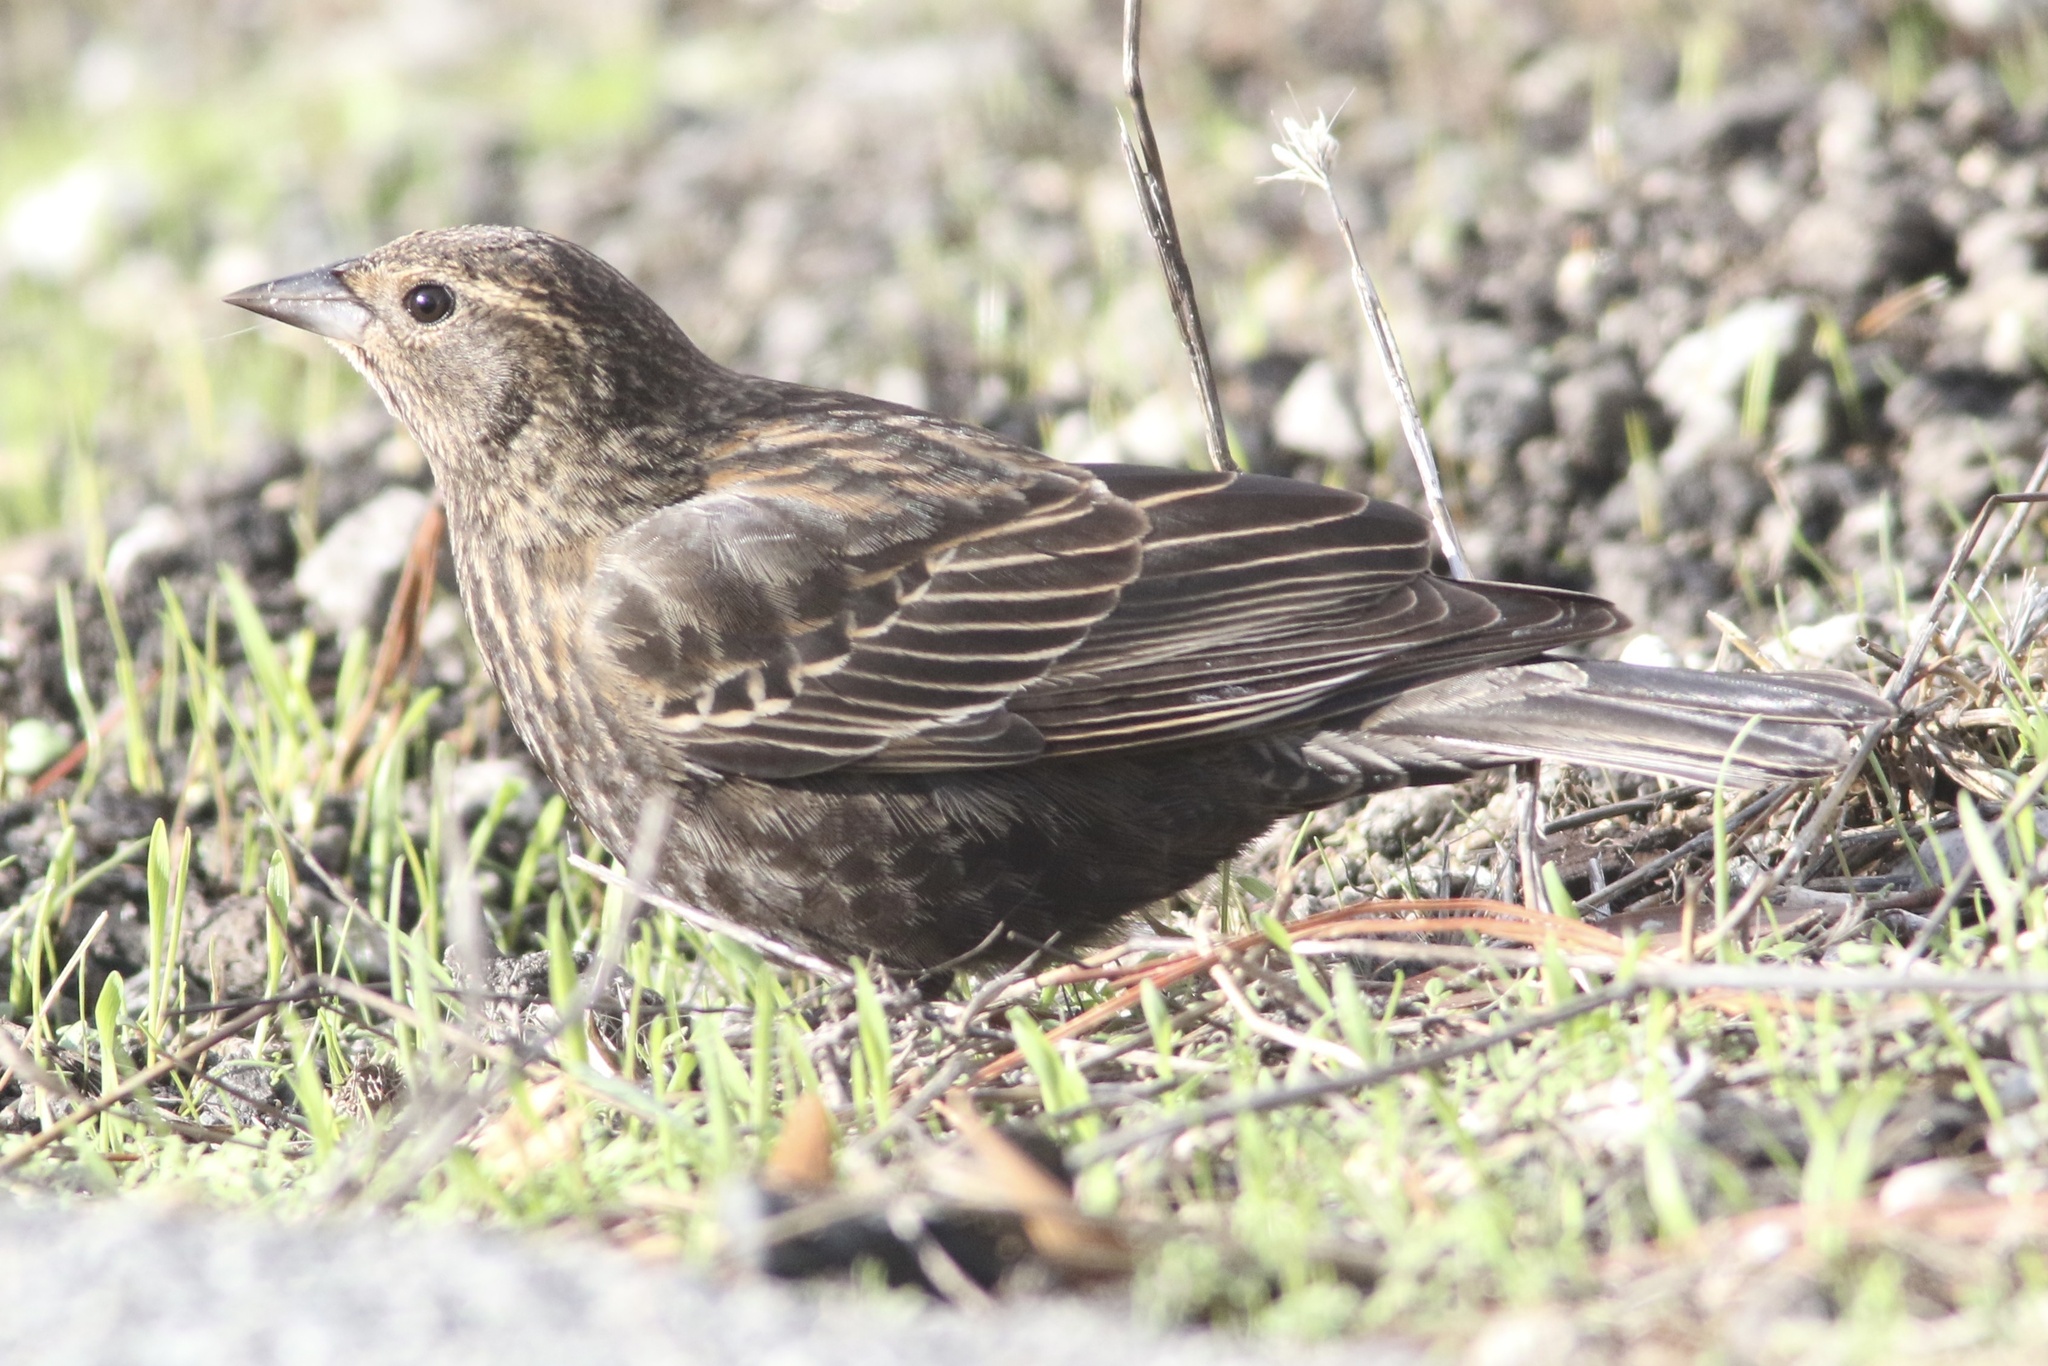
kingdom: Animalia
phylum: Chordata
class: Aves
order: Passeriformes
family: Icteridae
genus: Agelaius
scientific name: Agelaius phoeniceus
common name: Red-winged blackbird
